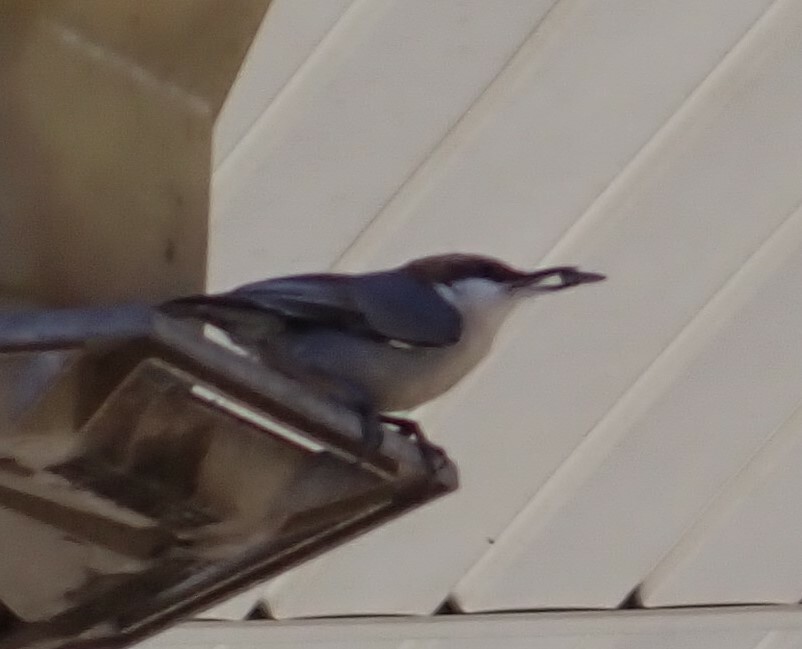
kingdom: Animalia
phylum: Chordata
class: Aves
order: Passeriformes
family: Sittidae
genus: Sitta
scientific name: Sitta pusilla
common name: Brown-headed nuthatch
